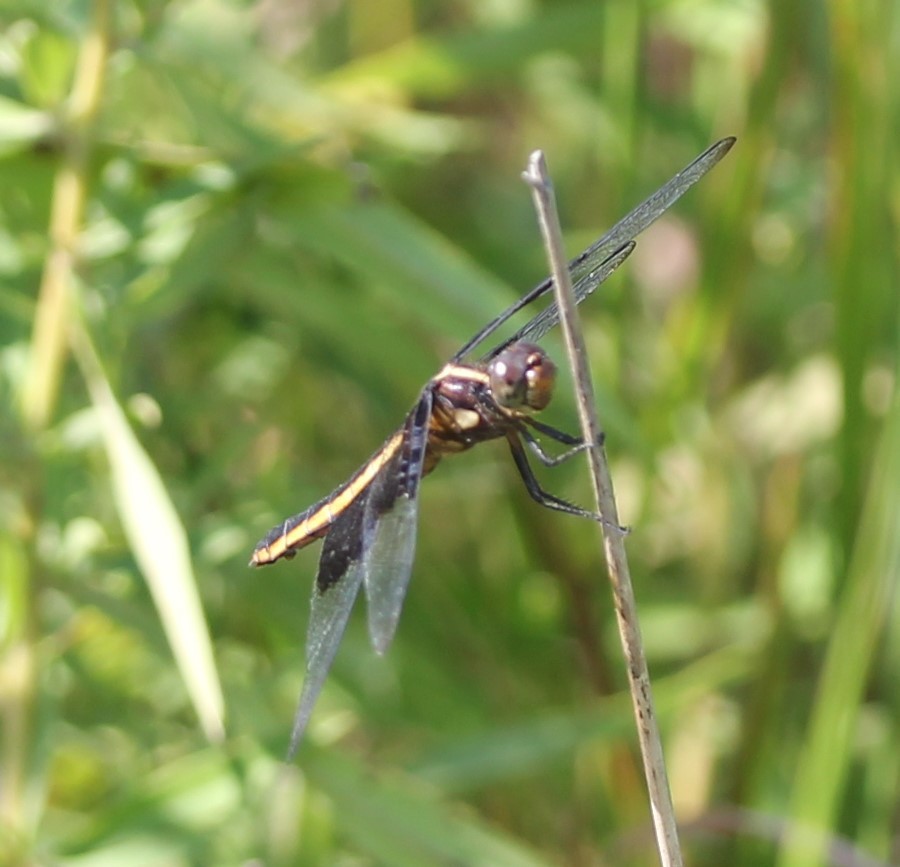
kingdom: Animalia
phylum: Arthropoda
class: Insecta
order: Odonata
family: Libellulidae
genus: Libellula
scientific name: Libellula luctuosa
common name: Widow skimmer
